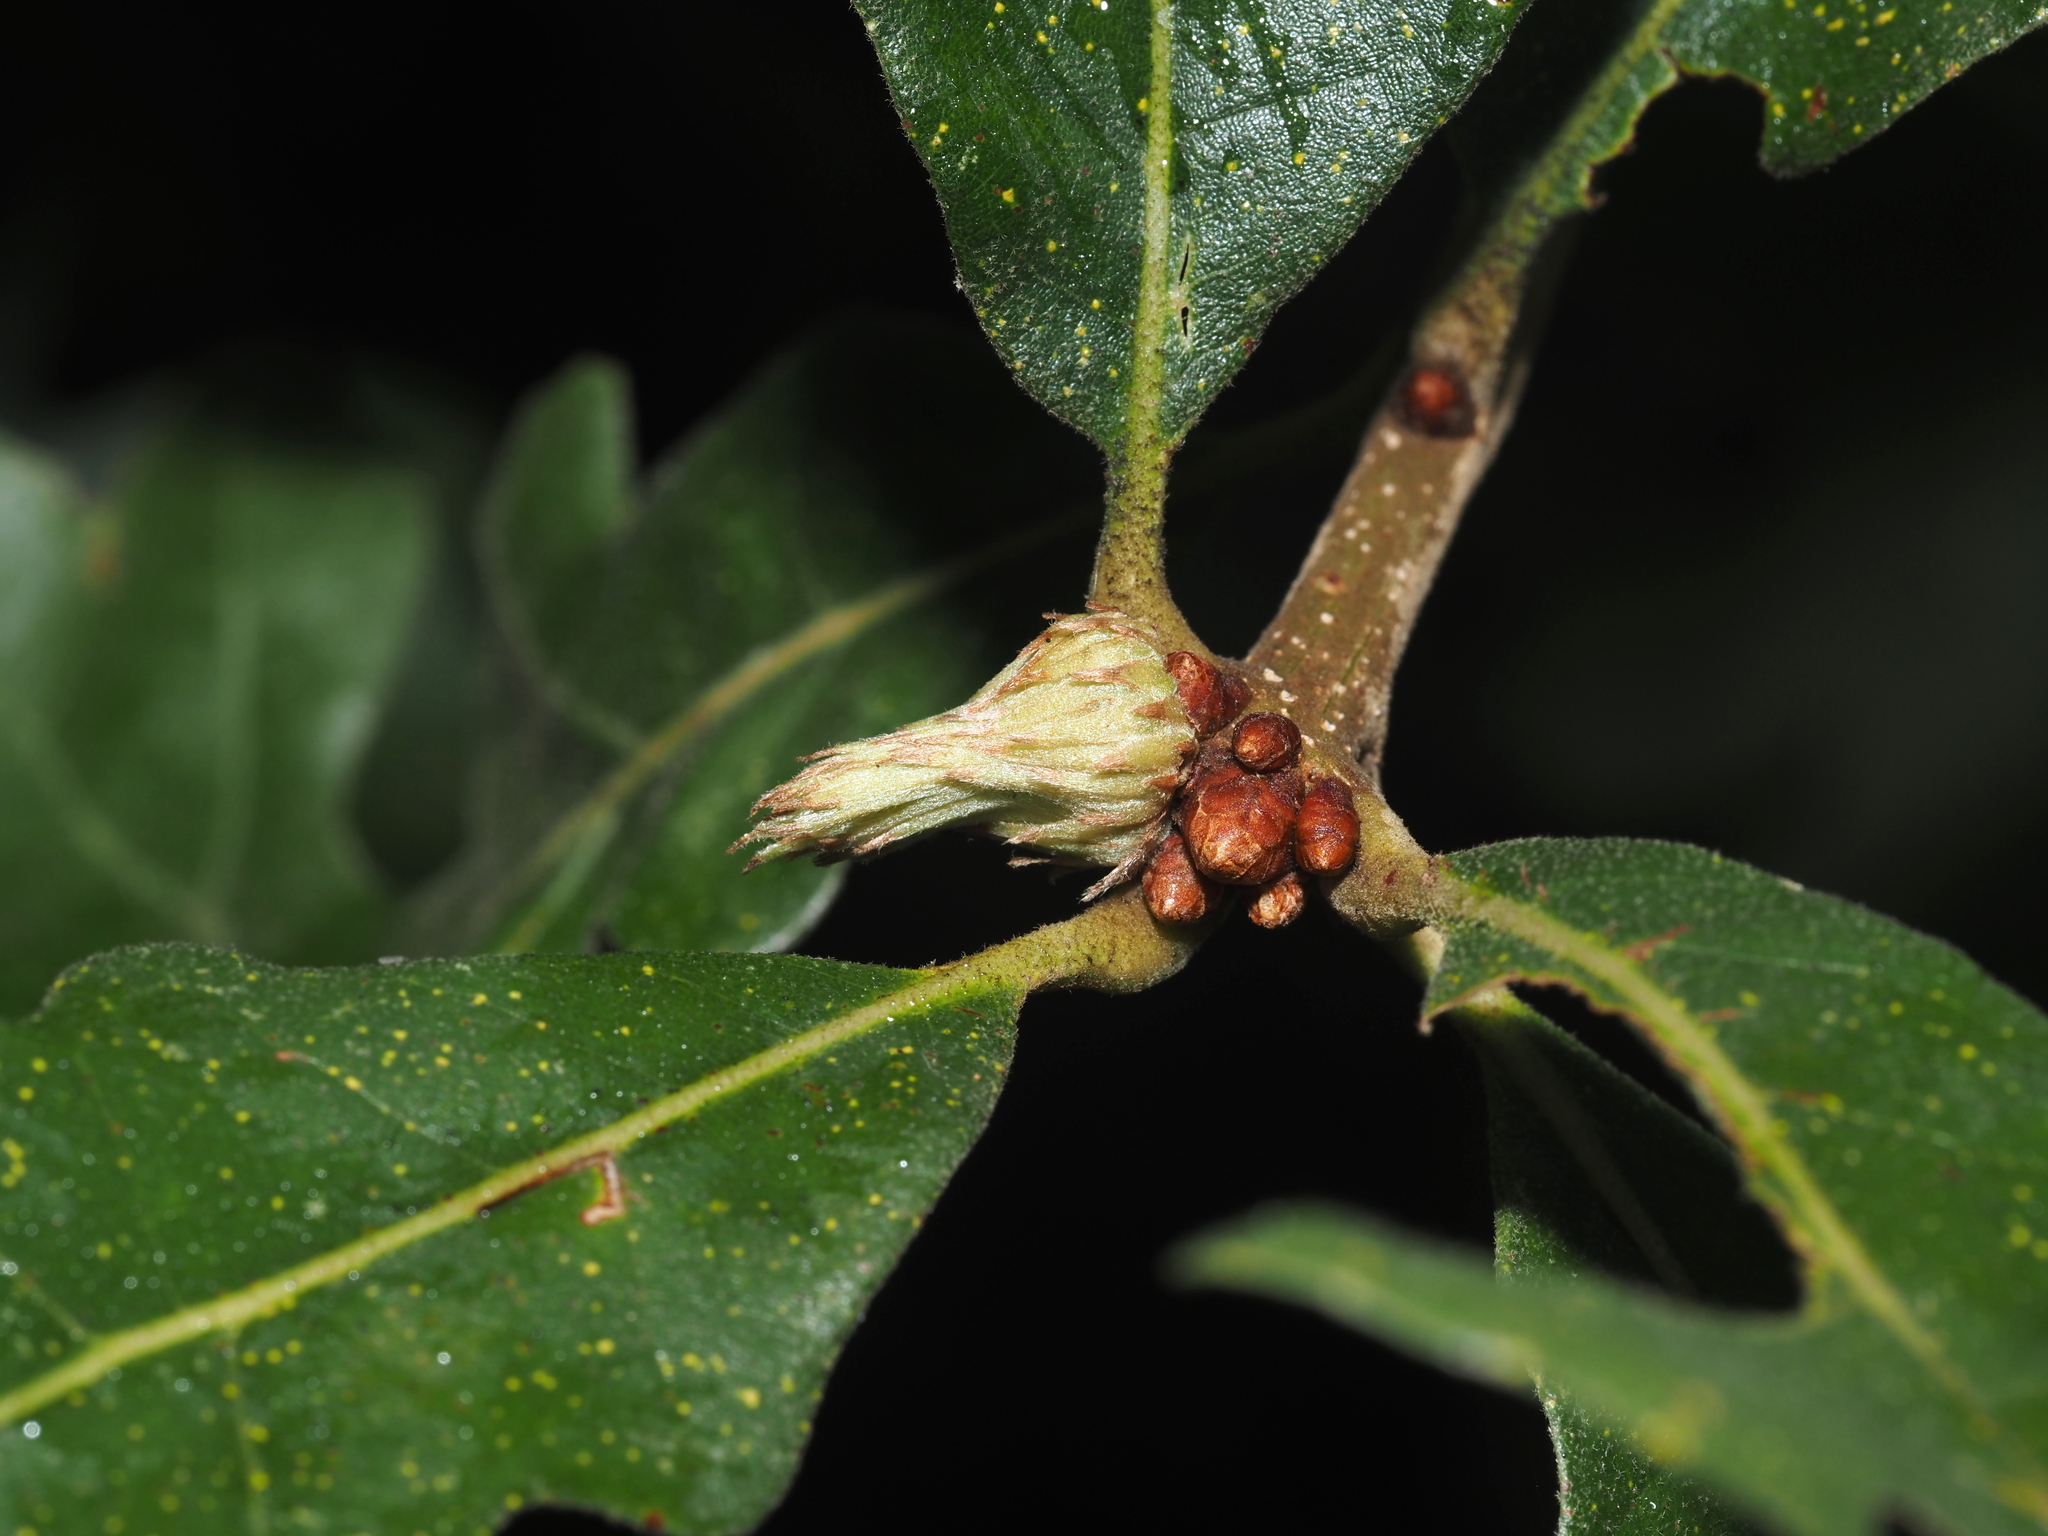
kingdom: Animalia
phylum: Arthropoda
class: Insecta
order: Hymenoptera
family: Cynipidae
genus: Andricus
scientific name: Andricus
